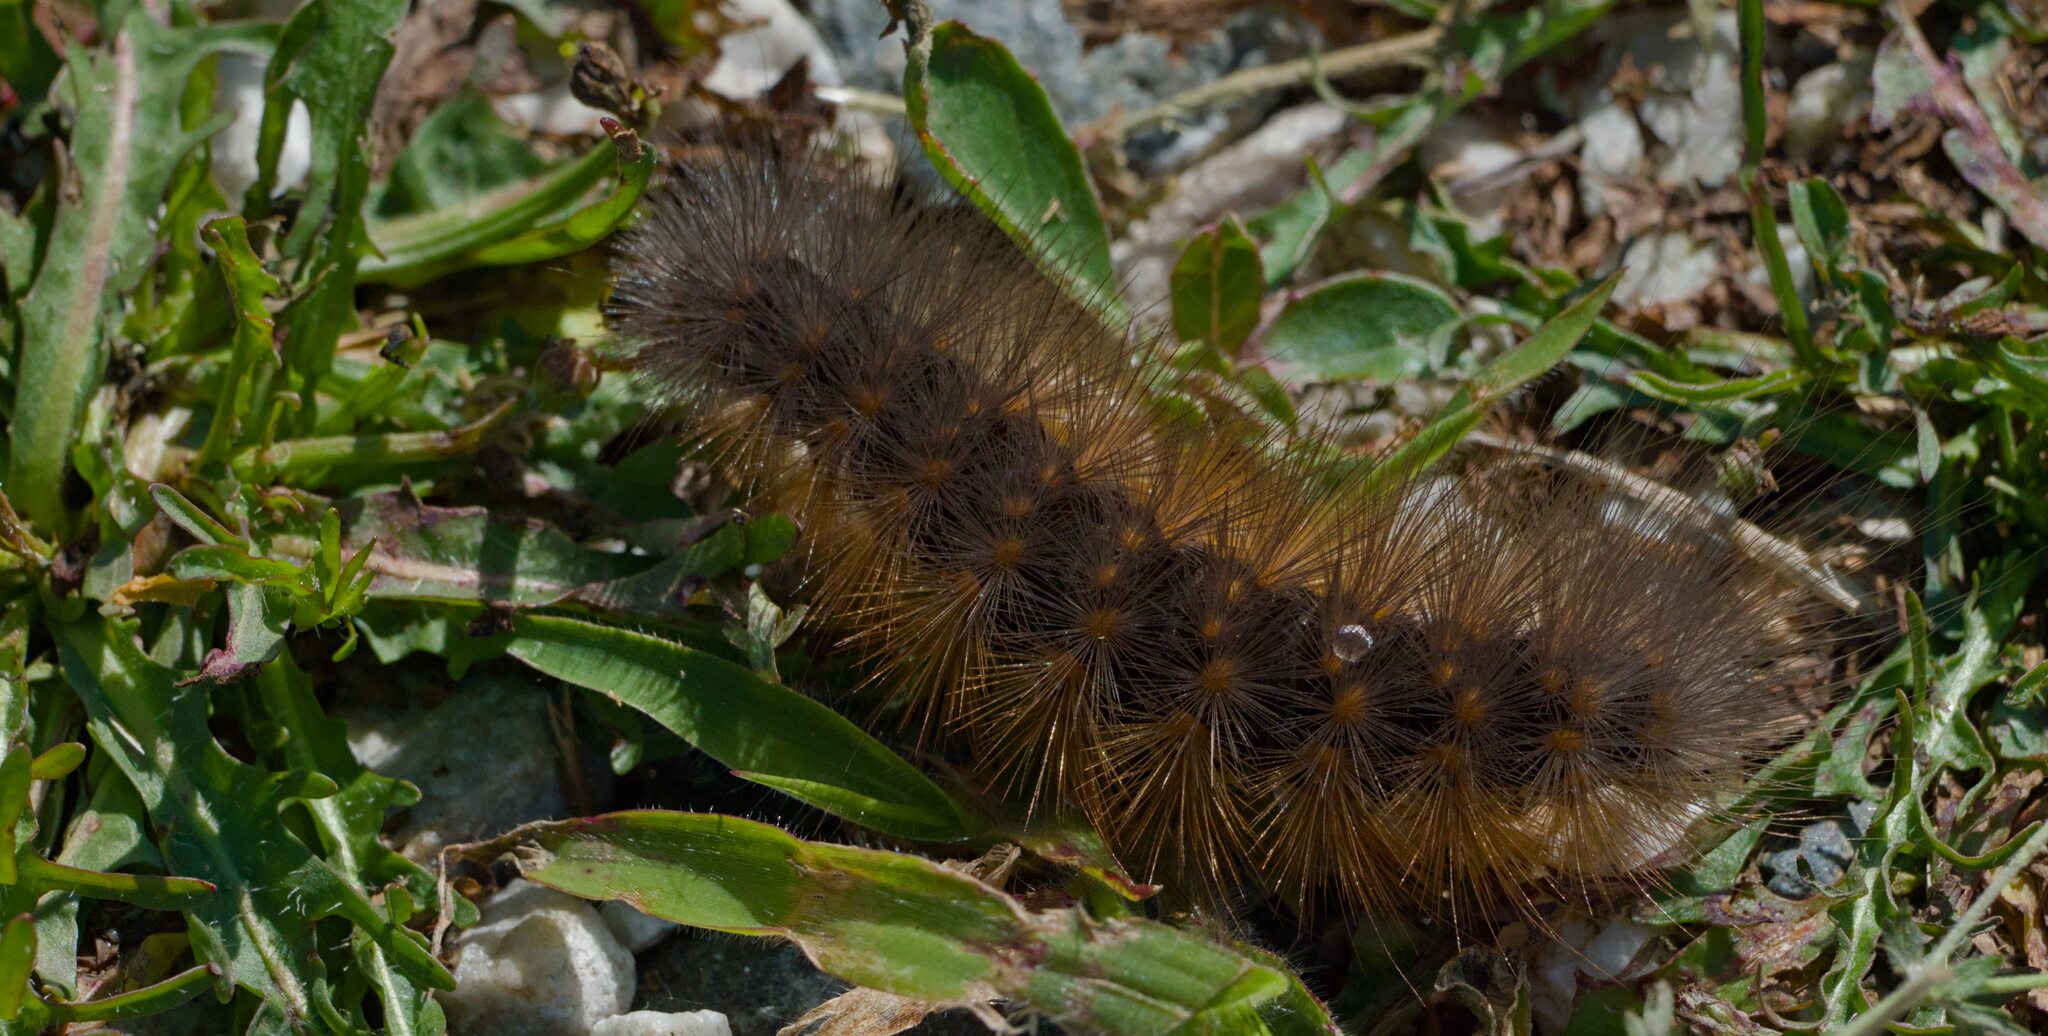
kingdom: Animalia
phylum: Arthropoda
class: Insecta
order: Lepidoptera
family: Erebidae
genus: Estigmene
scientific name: Estigmene acrea
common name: Salt marsh moth
